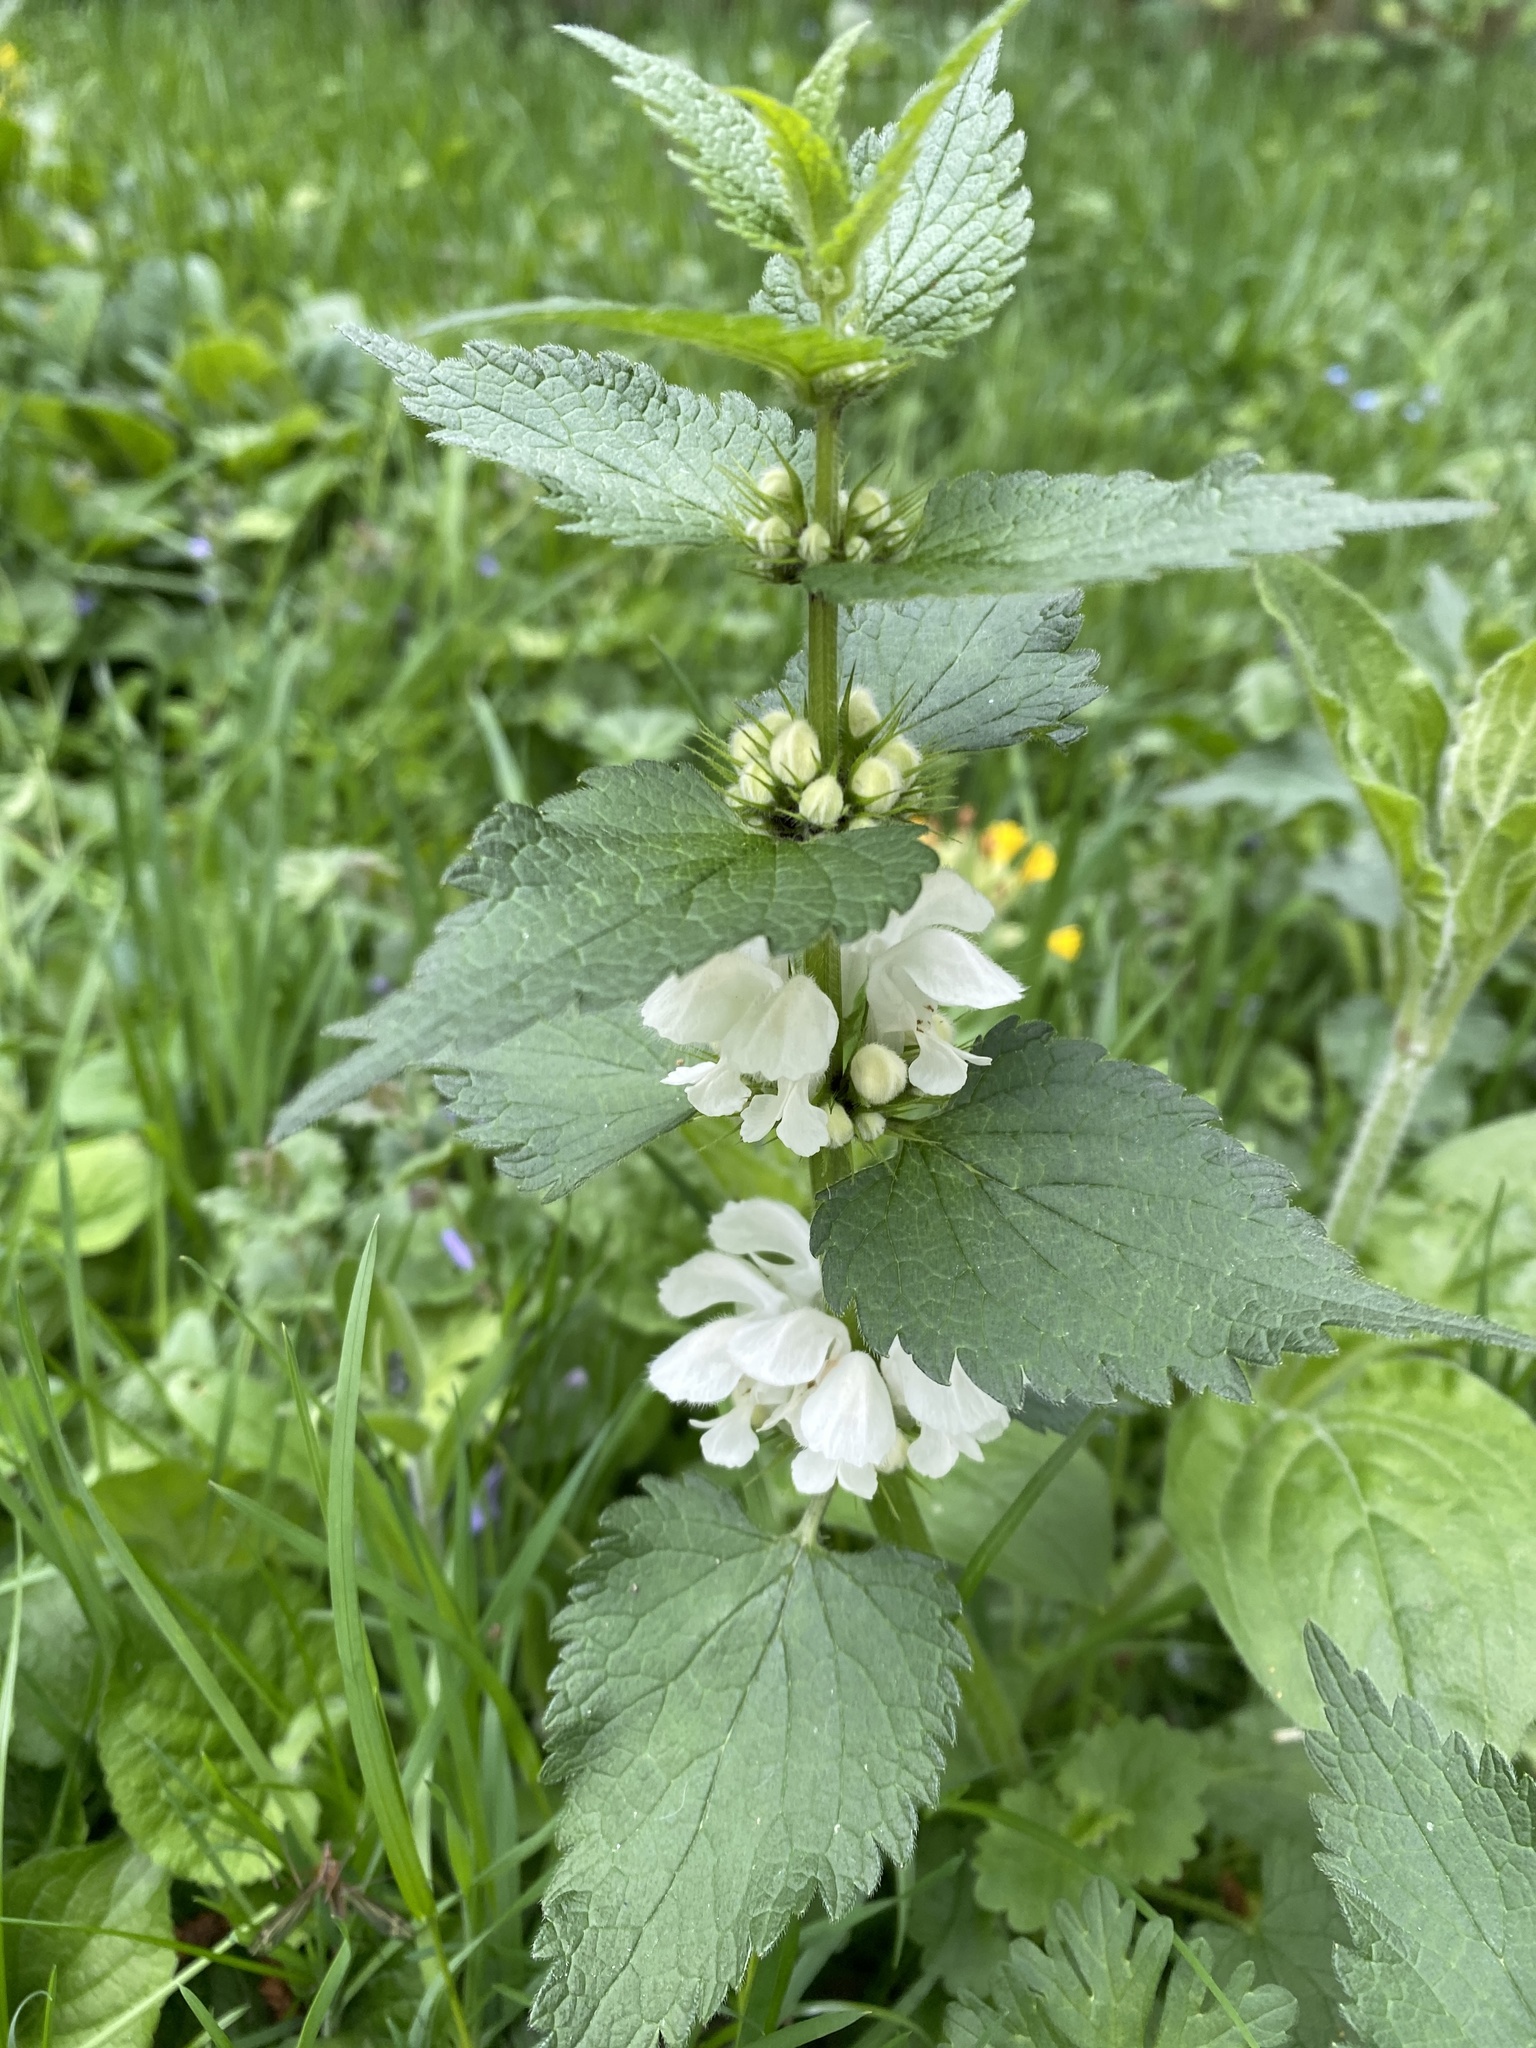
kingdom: Plantae
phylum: Tracheophyta
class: Magnoliopsida
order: Lamiales
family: Lamiaceae
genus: Lamium
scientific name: Lamium album
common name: White dead-nettle
